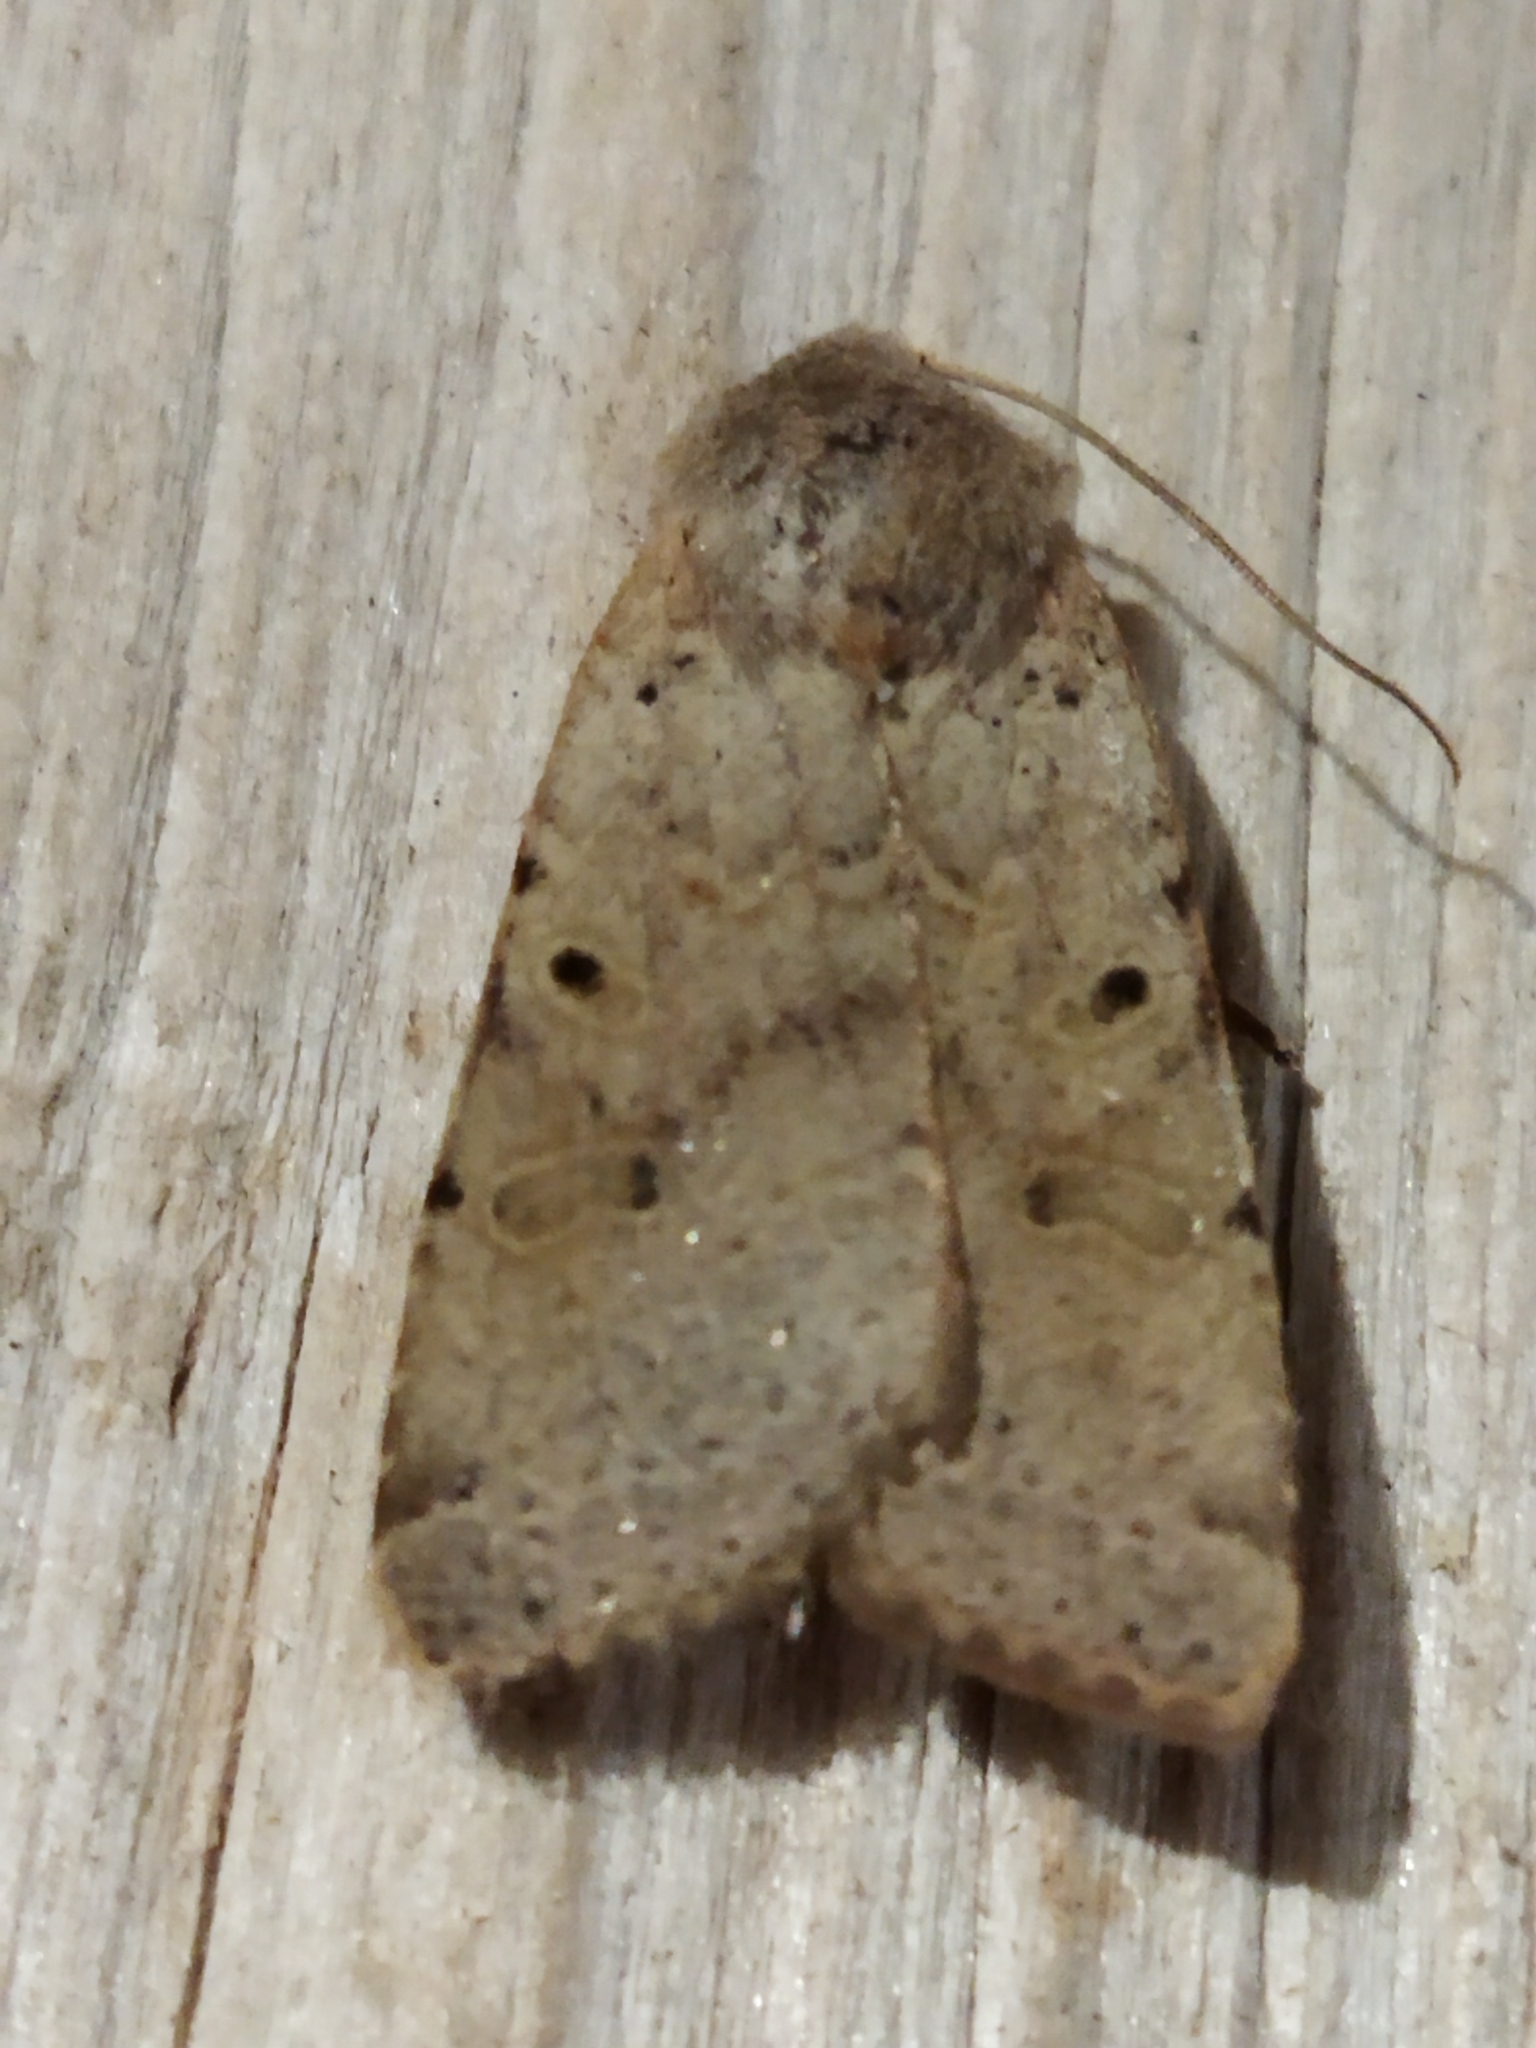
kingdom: Animalia
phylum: Arthropoda
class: Insecta
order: Lepidoptera
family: Noctuidae
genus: Agrochola
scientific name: Agrochola lychnidis
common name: Beaded chestnut
